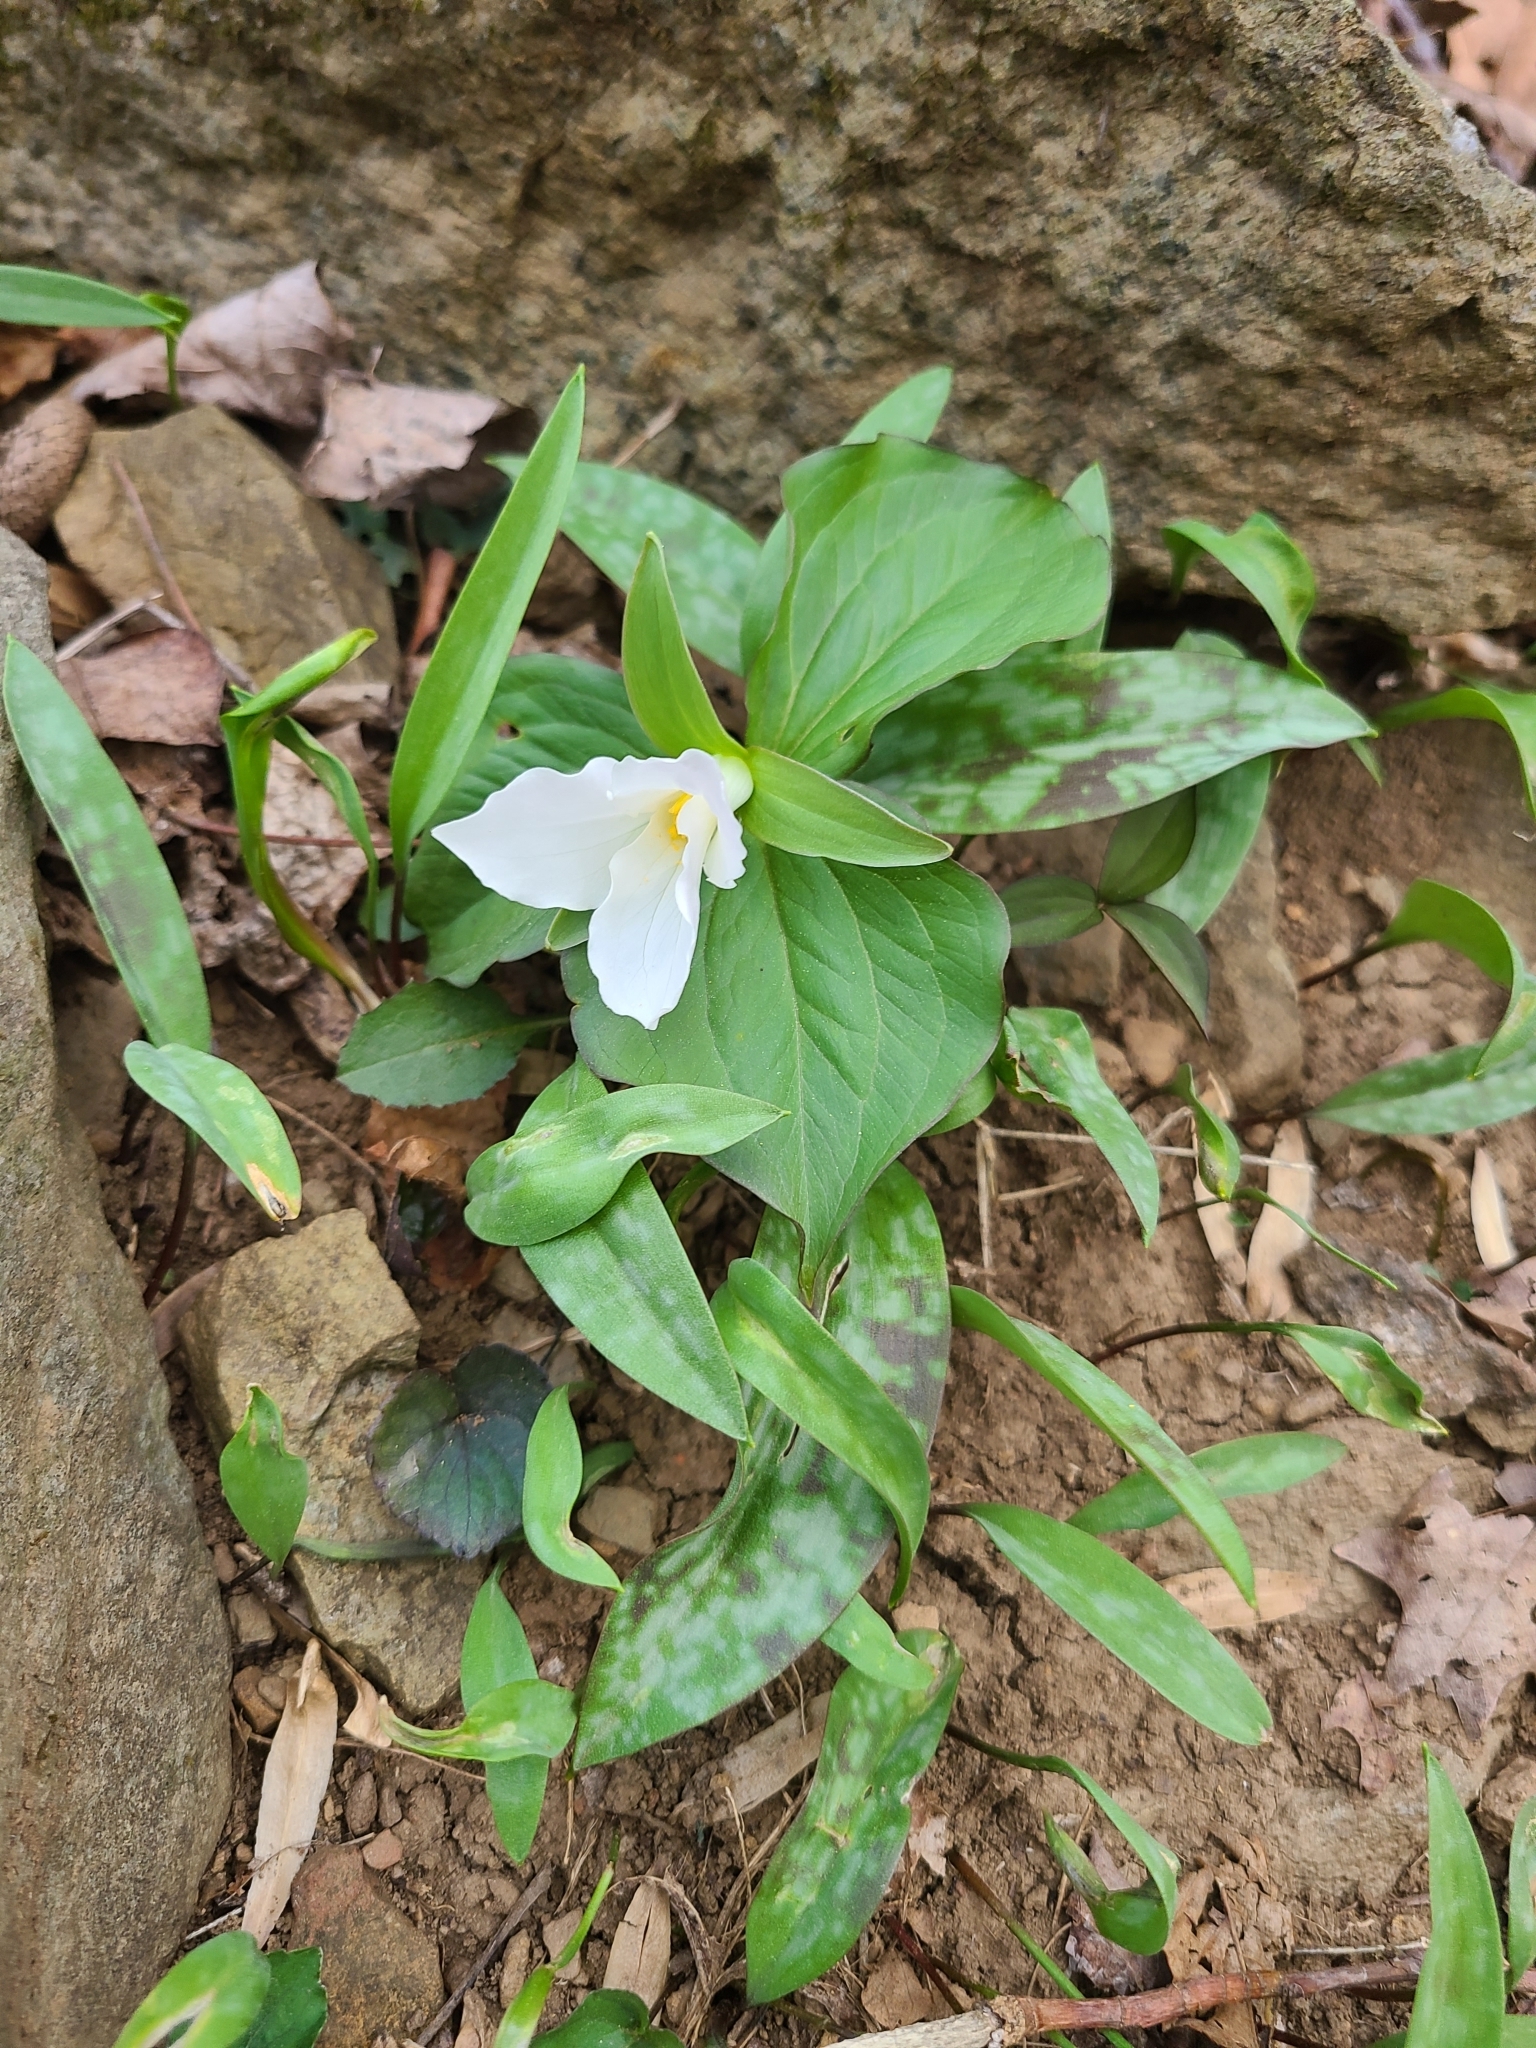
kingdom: Plantae
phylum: Tracheophyta
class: Liliopsida
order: Liliales
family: Melanthiaceae
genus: Trillium
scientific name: Trillium grandiflorum
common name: Great white trillium
